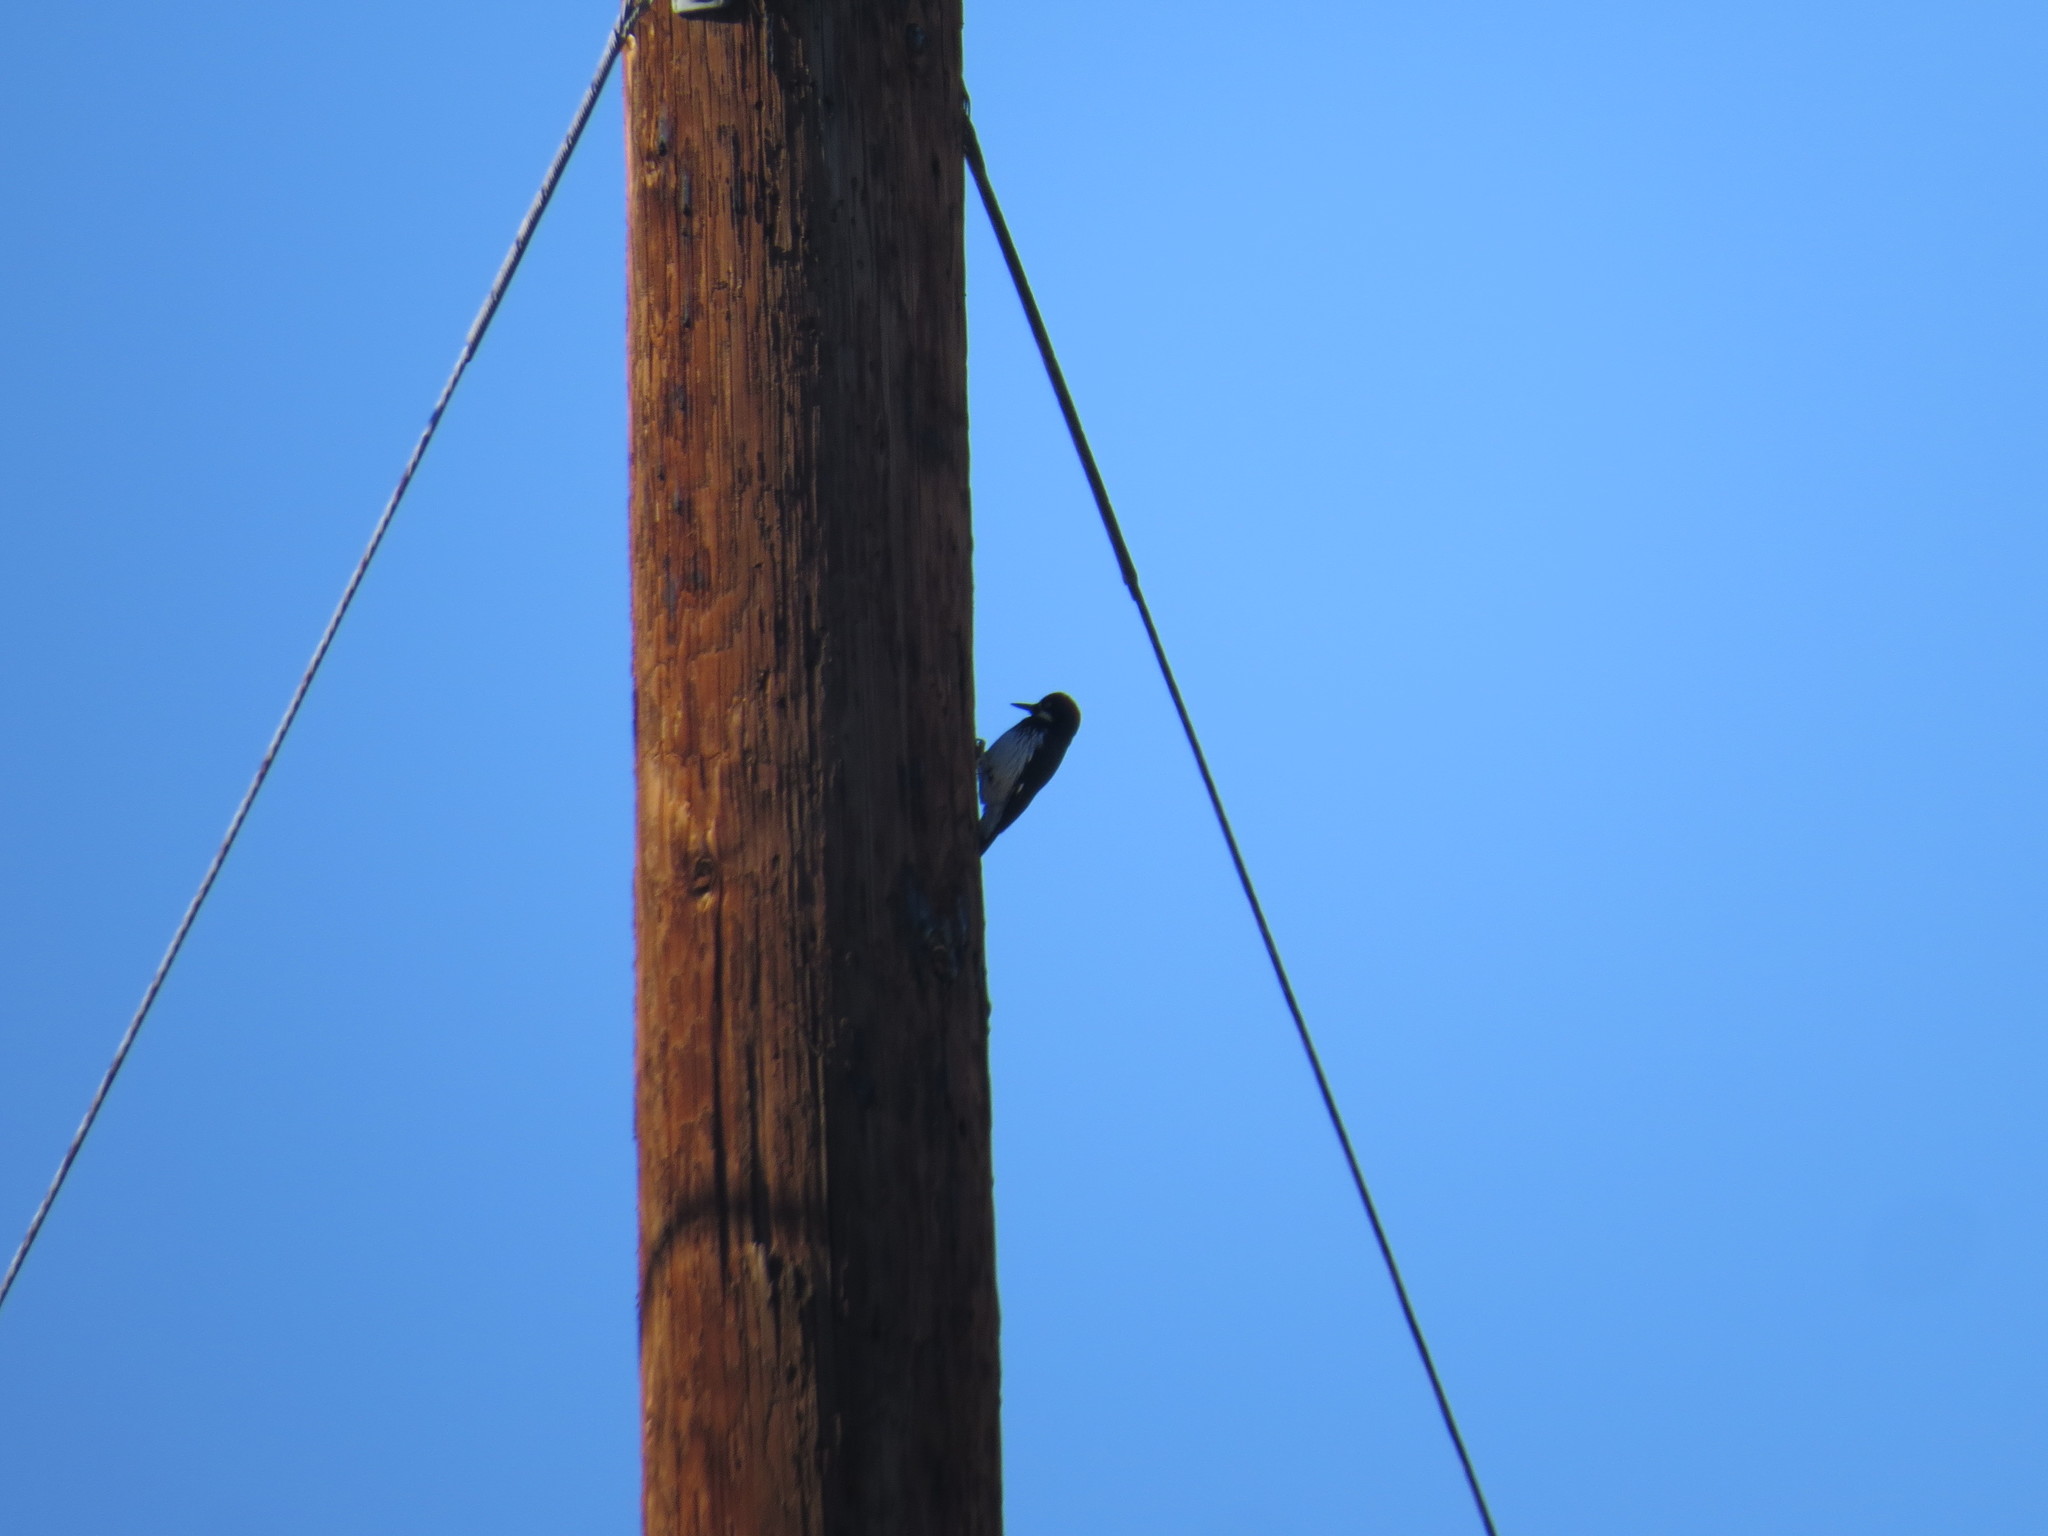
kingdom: Animalia
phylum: Chordata
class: Aves
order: Piciformes
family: Picidae
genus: Melanerpes
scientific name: Melanerpes formicivorus
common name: Acorn woodpecker
